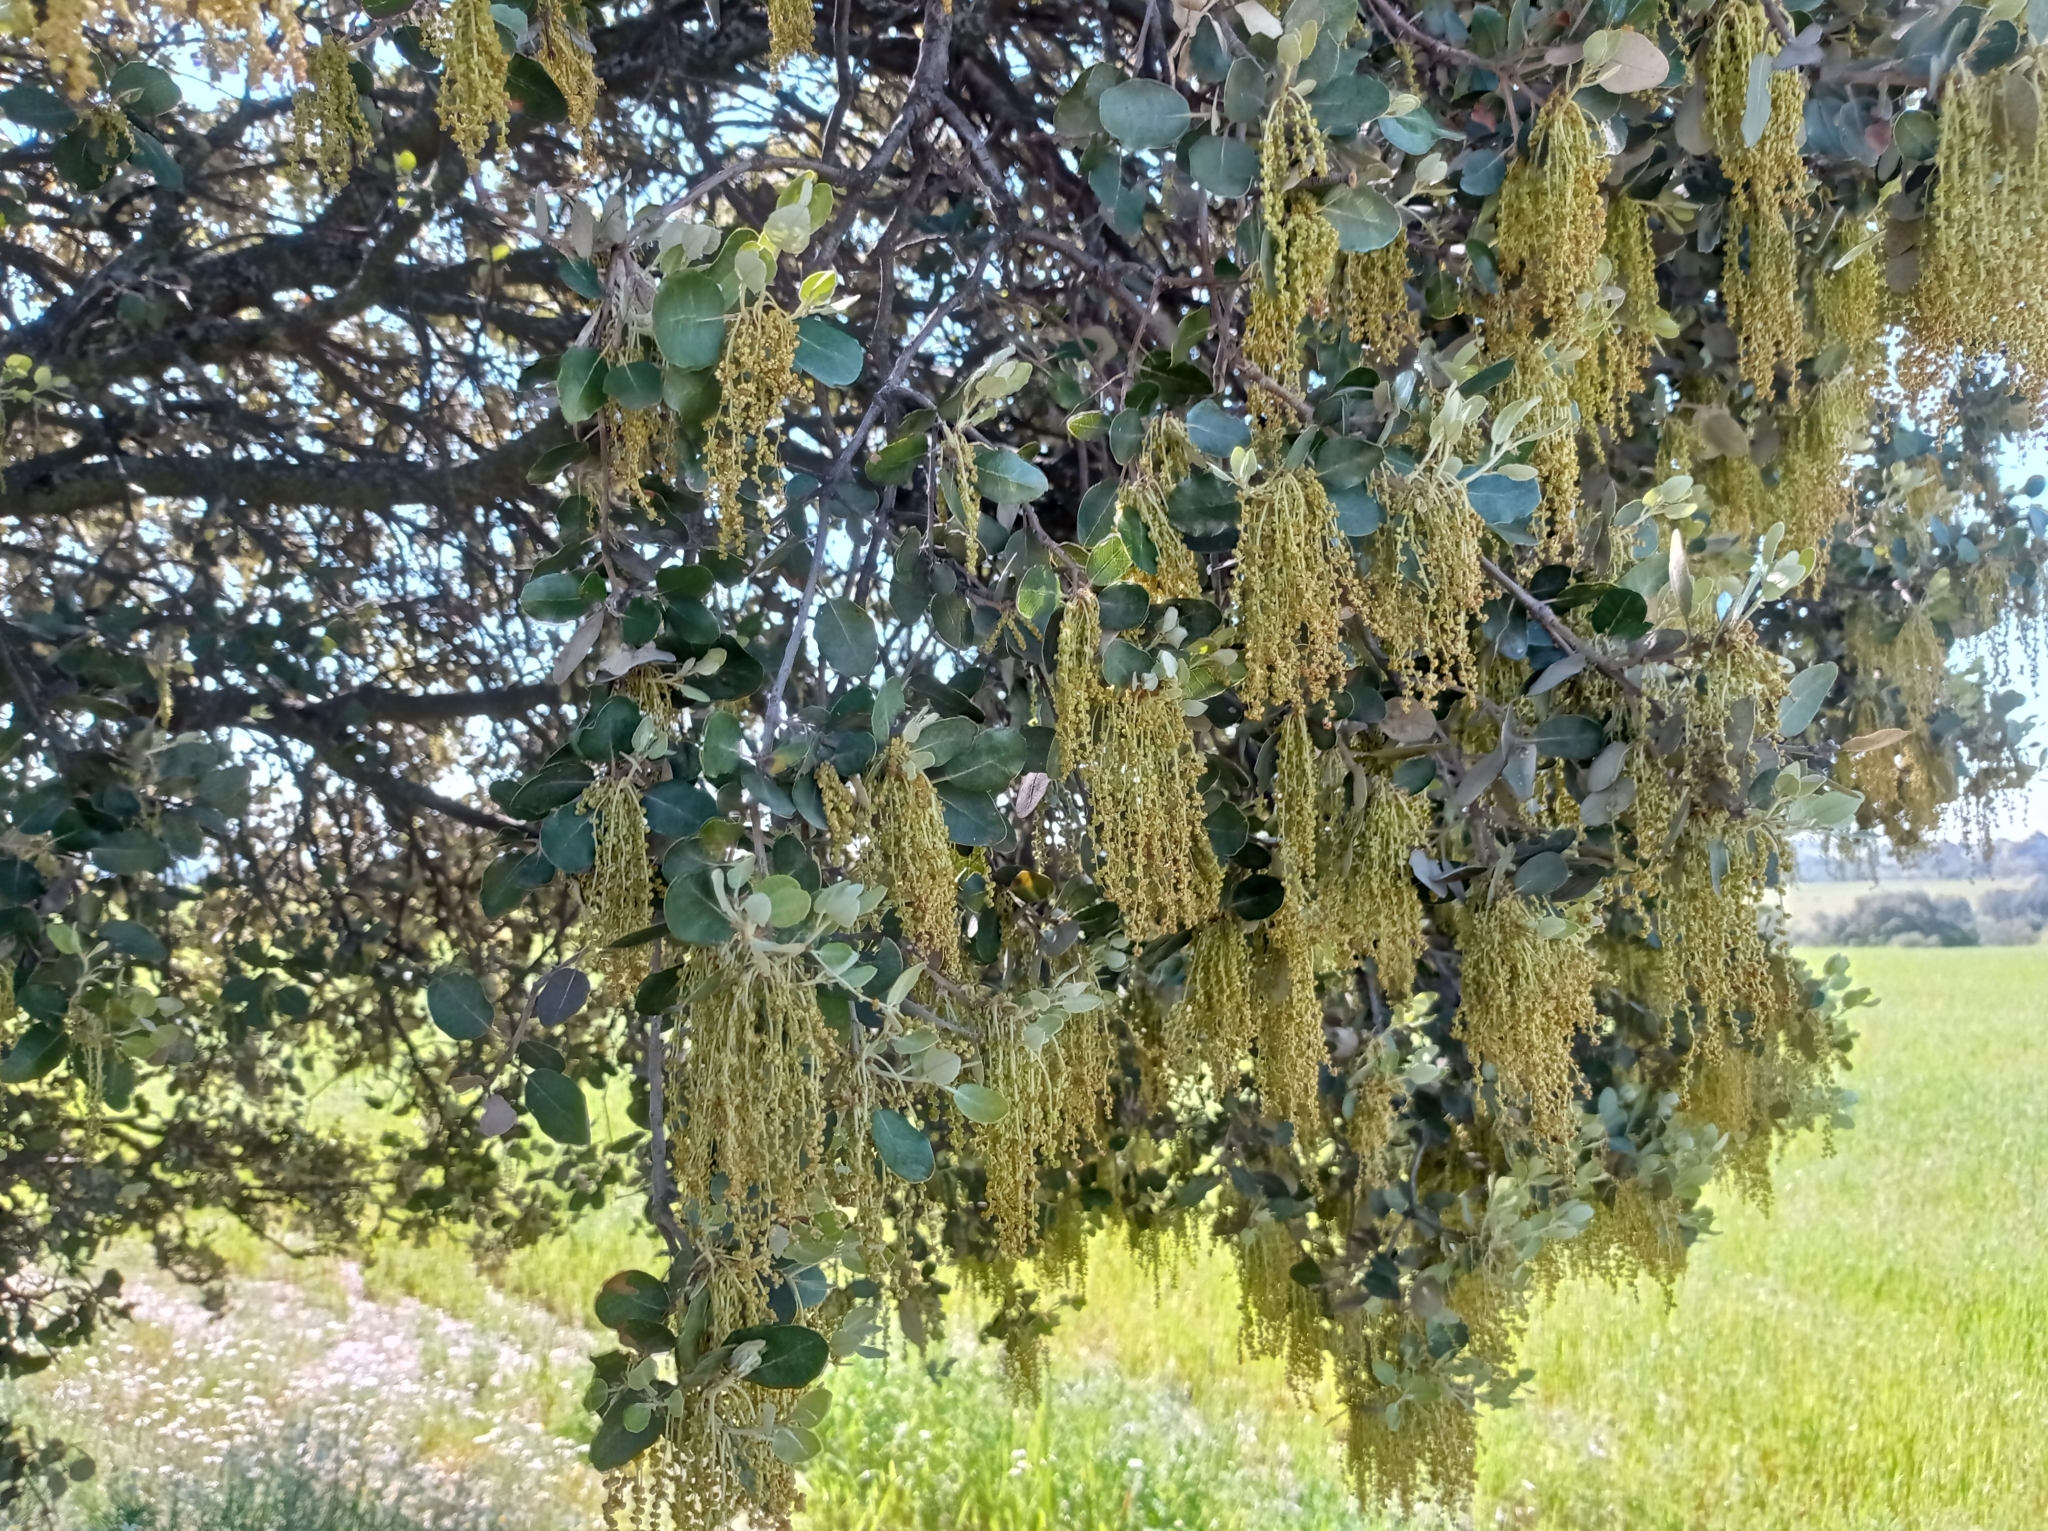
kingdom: Plantae
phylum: Tracheophyta
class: Magnoliopsida
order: Fagales
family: Fagaceae
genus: Quercus
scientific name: Quercus rotundifolia
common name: Holm oak
